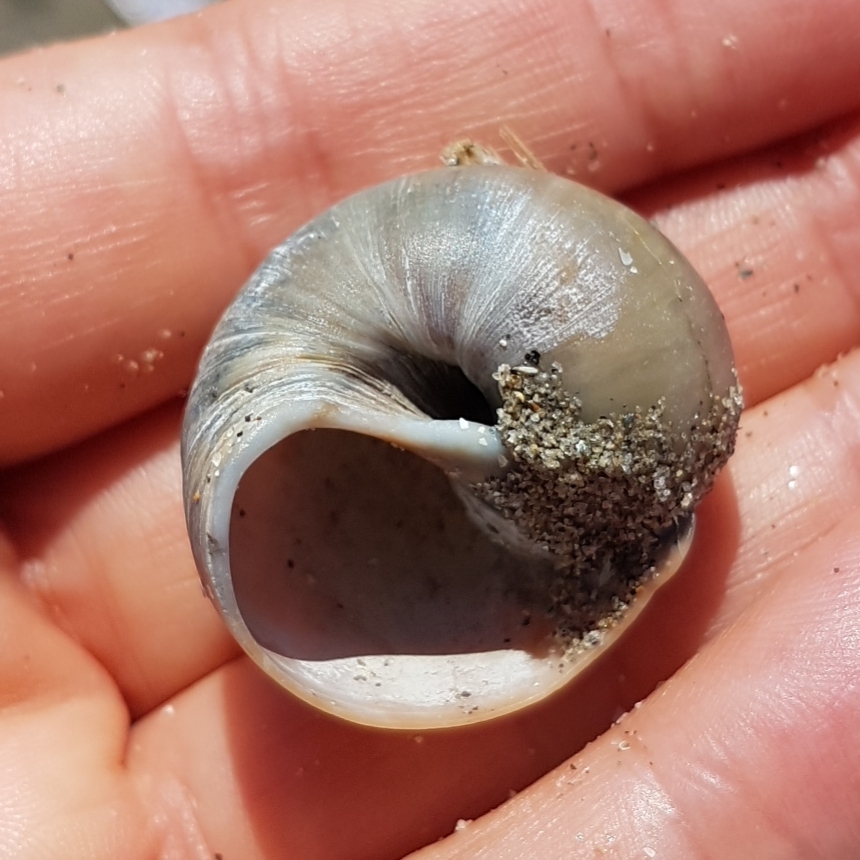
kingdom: Animalia
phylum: Mollusca
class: Gastropoda
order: Littorinimorpha
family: Naticidae
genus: Euspira
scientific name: Euspira catena
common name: Necklace shell
